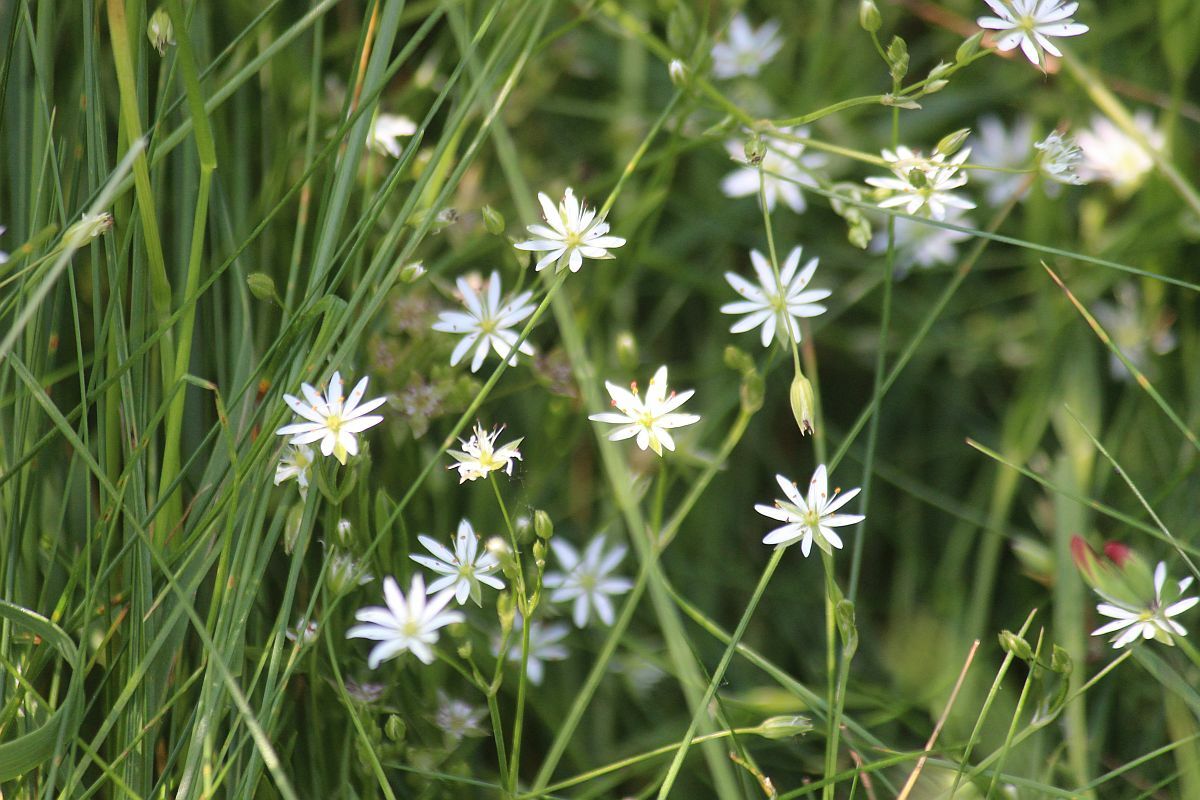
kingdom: Plantae
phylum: Tracheophyta
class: Magnoliopsida
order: Caryophyllales
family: Caryophyllaceae
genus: Stellaria
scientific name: Stellaria graminea
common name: Grass-like starwort
